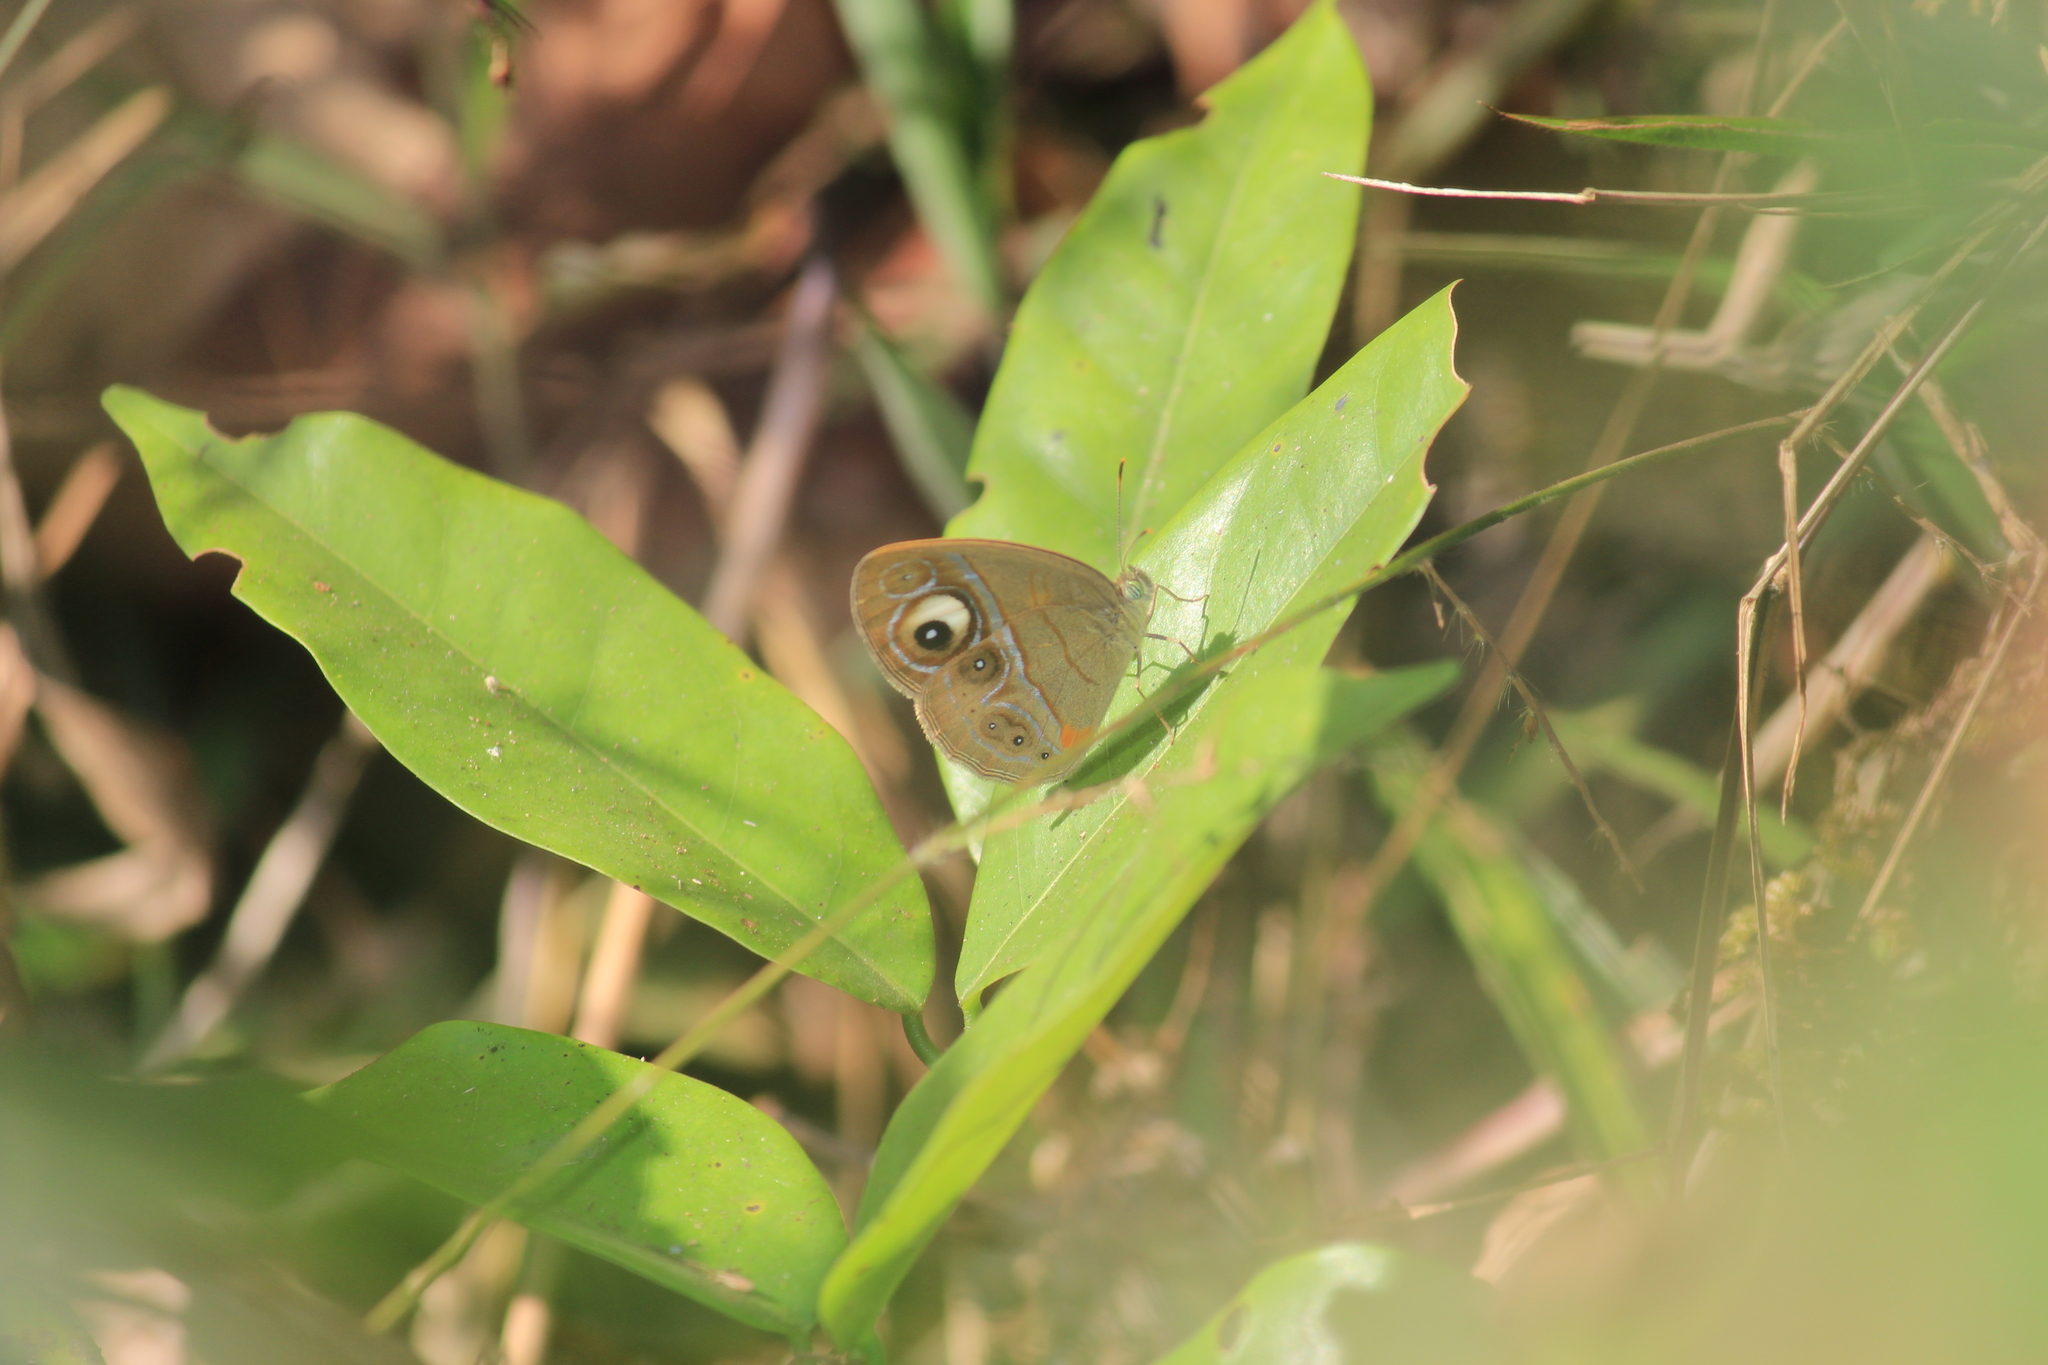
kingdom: Animalia
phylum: Arthropoda
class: Insecta
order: Lepidoptera
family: Nymphalidae
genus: Mycalesis
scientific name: Mycalesis patnia
